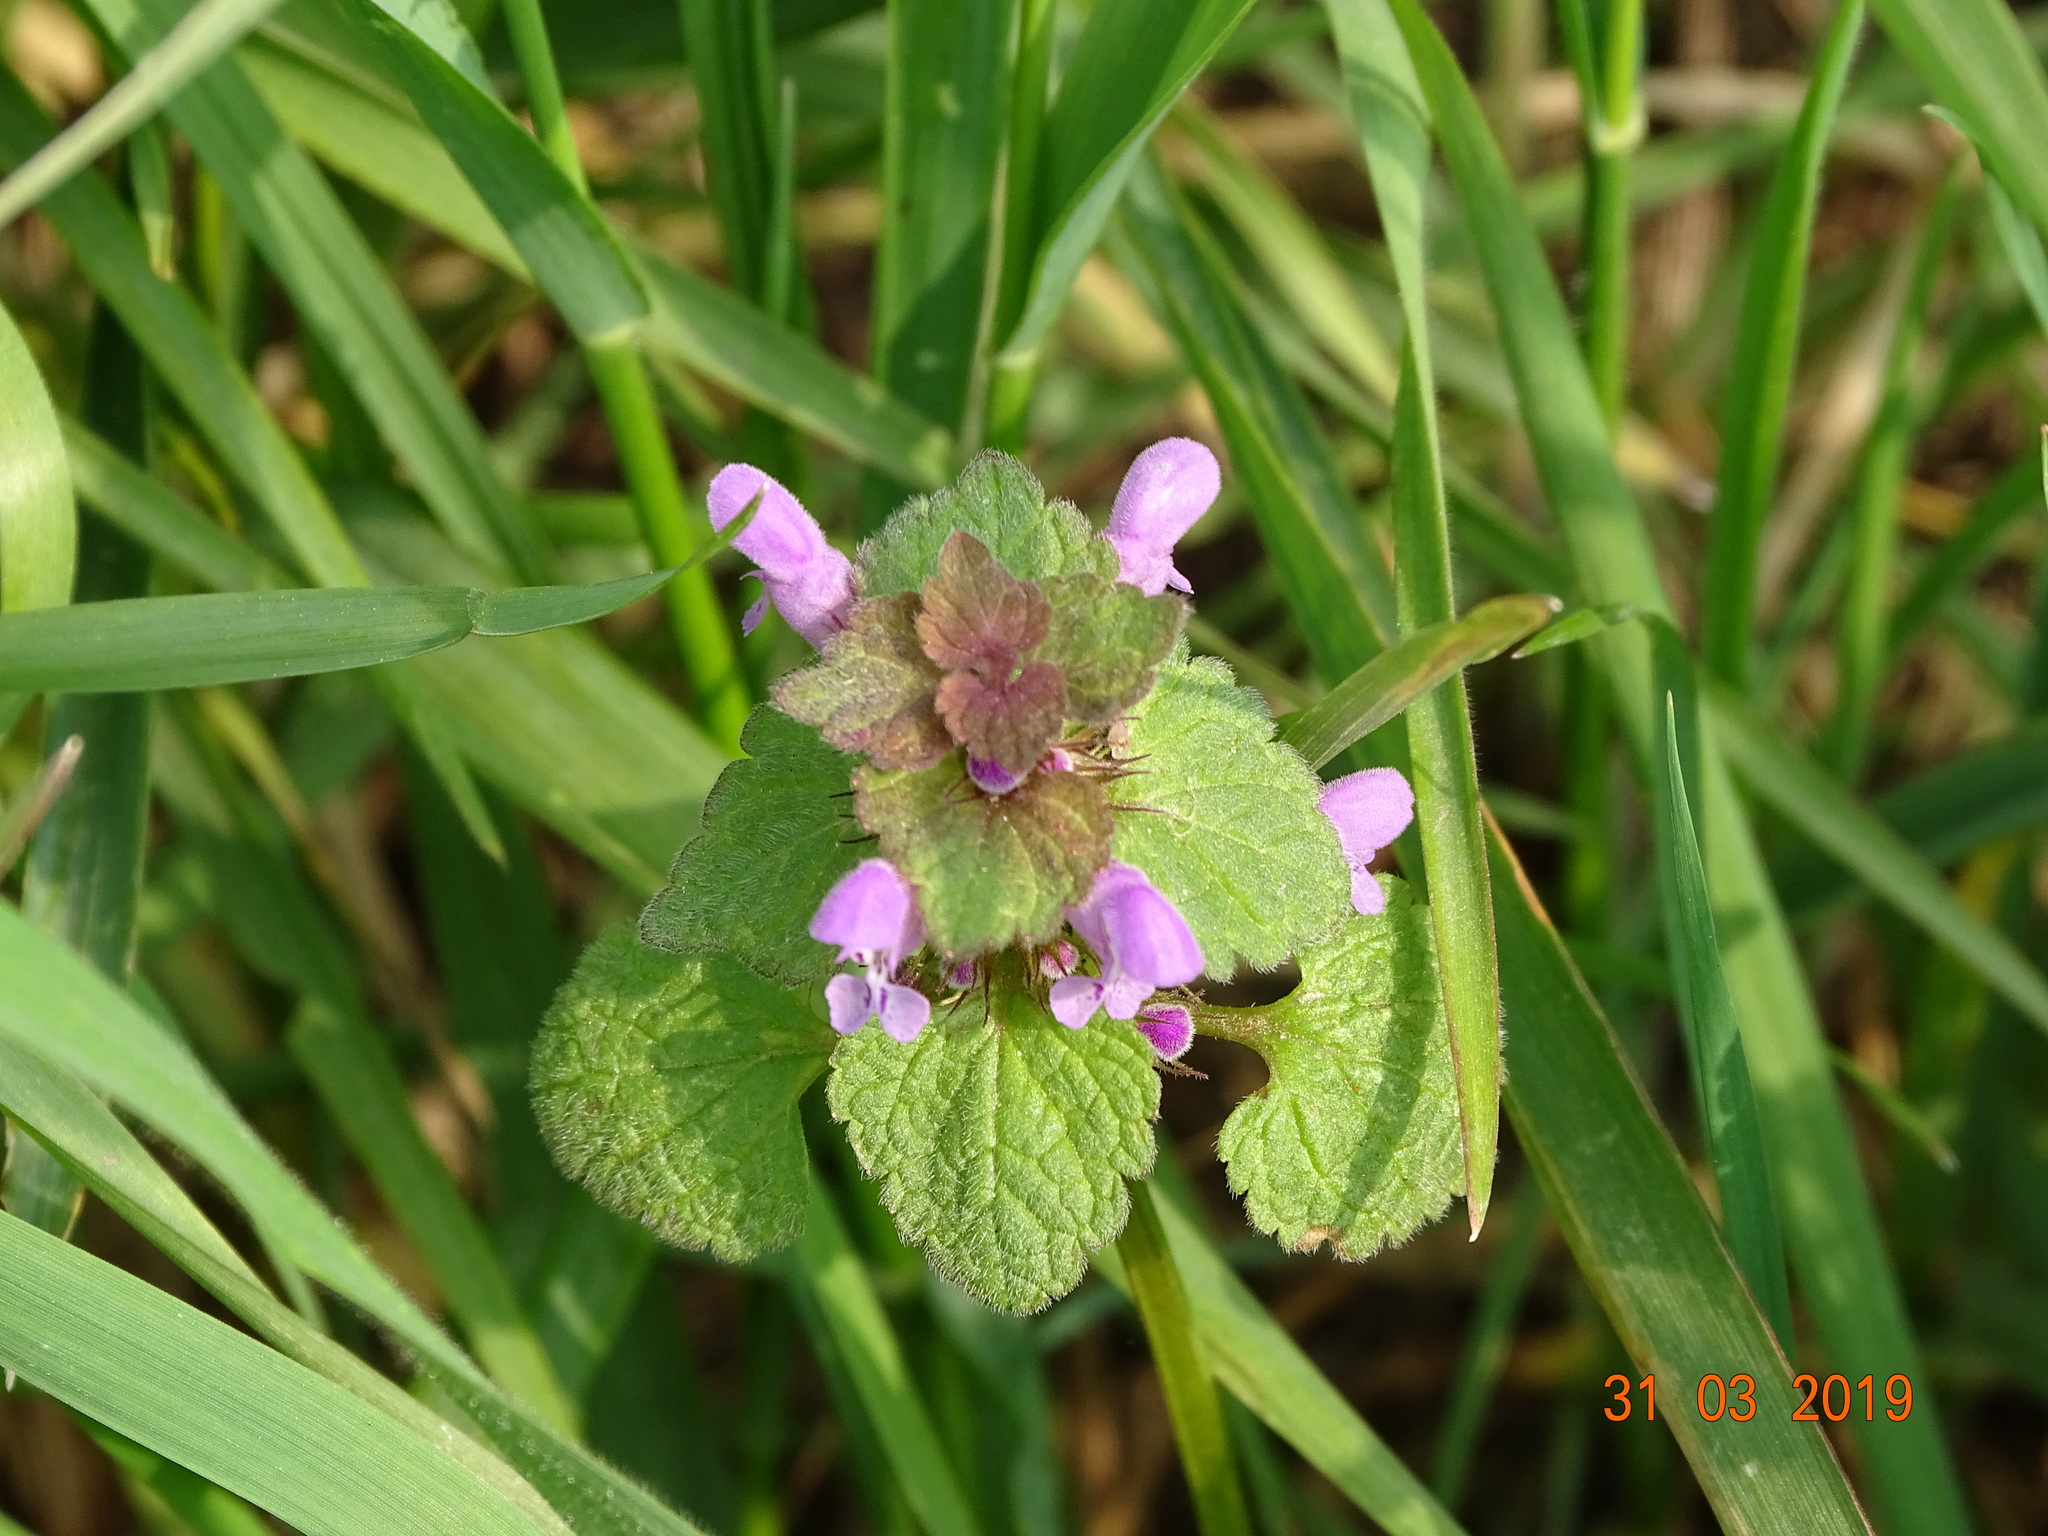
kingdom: Plantae
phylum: Tracheophyta
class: Magnoliopsida
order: Lamiales
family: Lamiaceae
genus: Lamium
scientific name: Lamium purpureum
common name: Red dead-nettle
